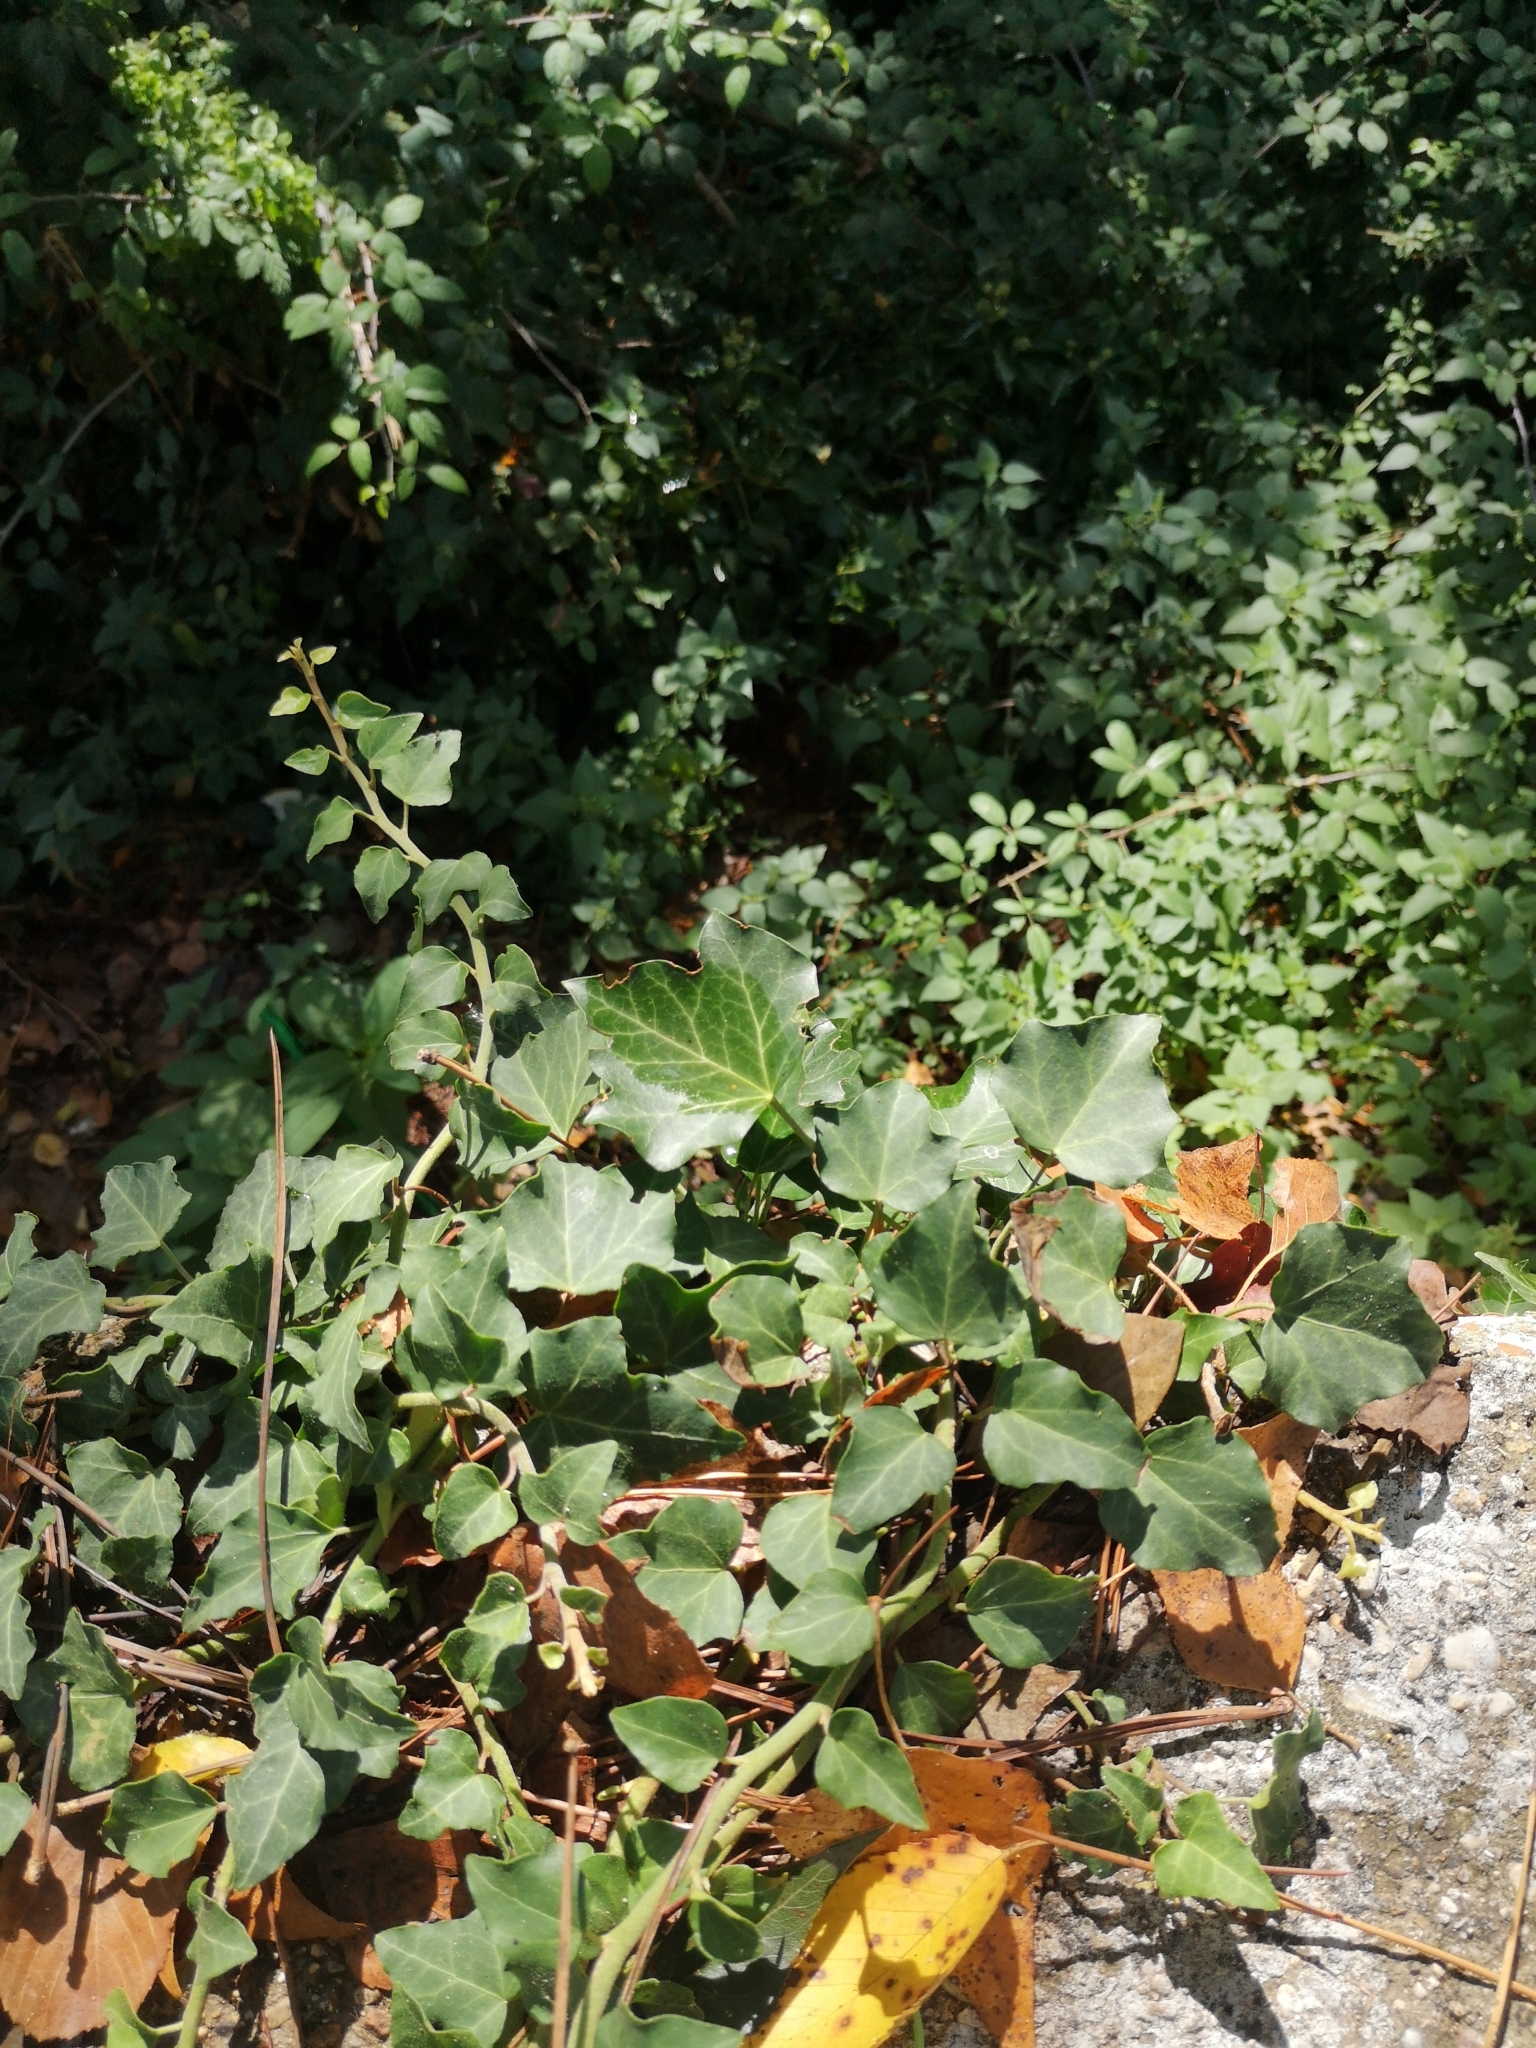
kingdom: Plantae
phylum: Tracheophyta
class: Magnoliopsida
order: Apiales
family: Araliaceae
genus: Hedera
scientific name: Hedera helix
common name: Ivy
